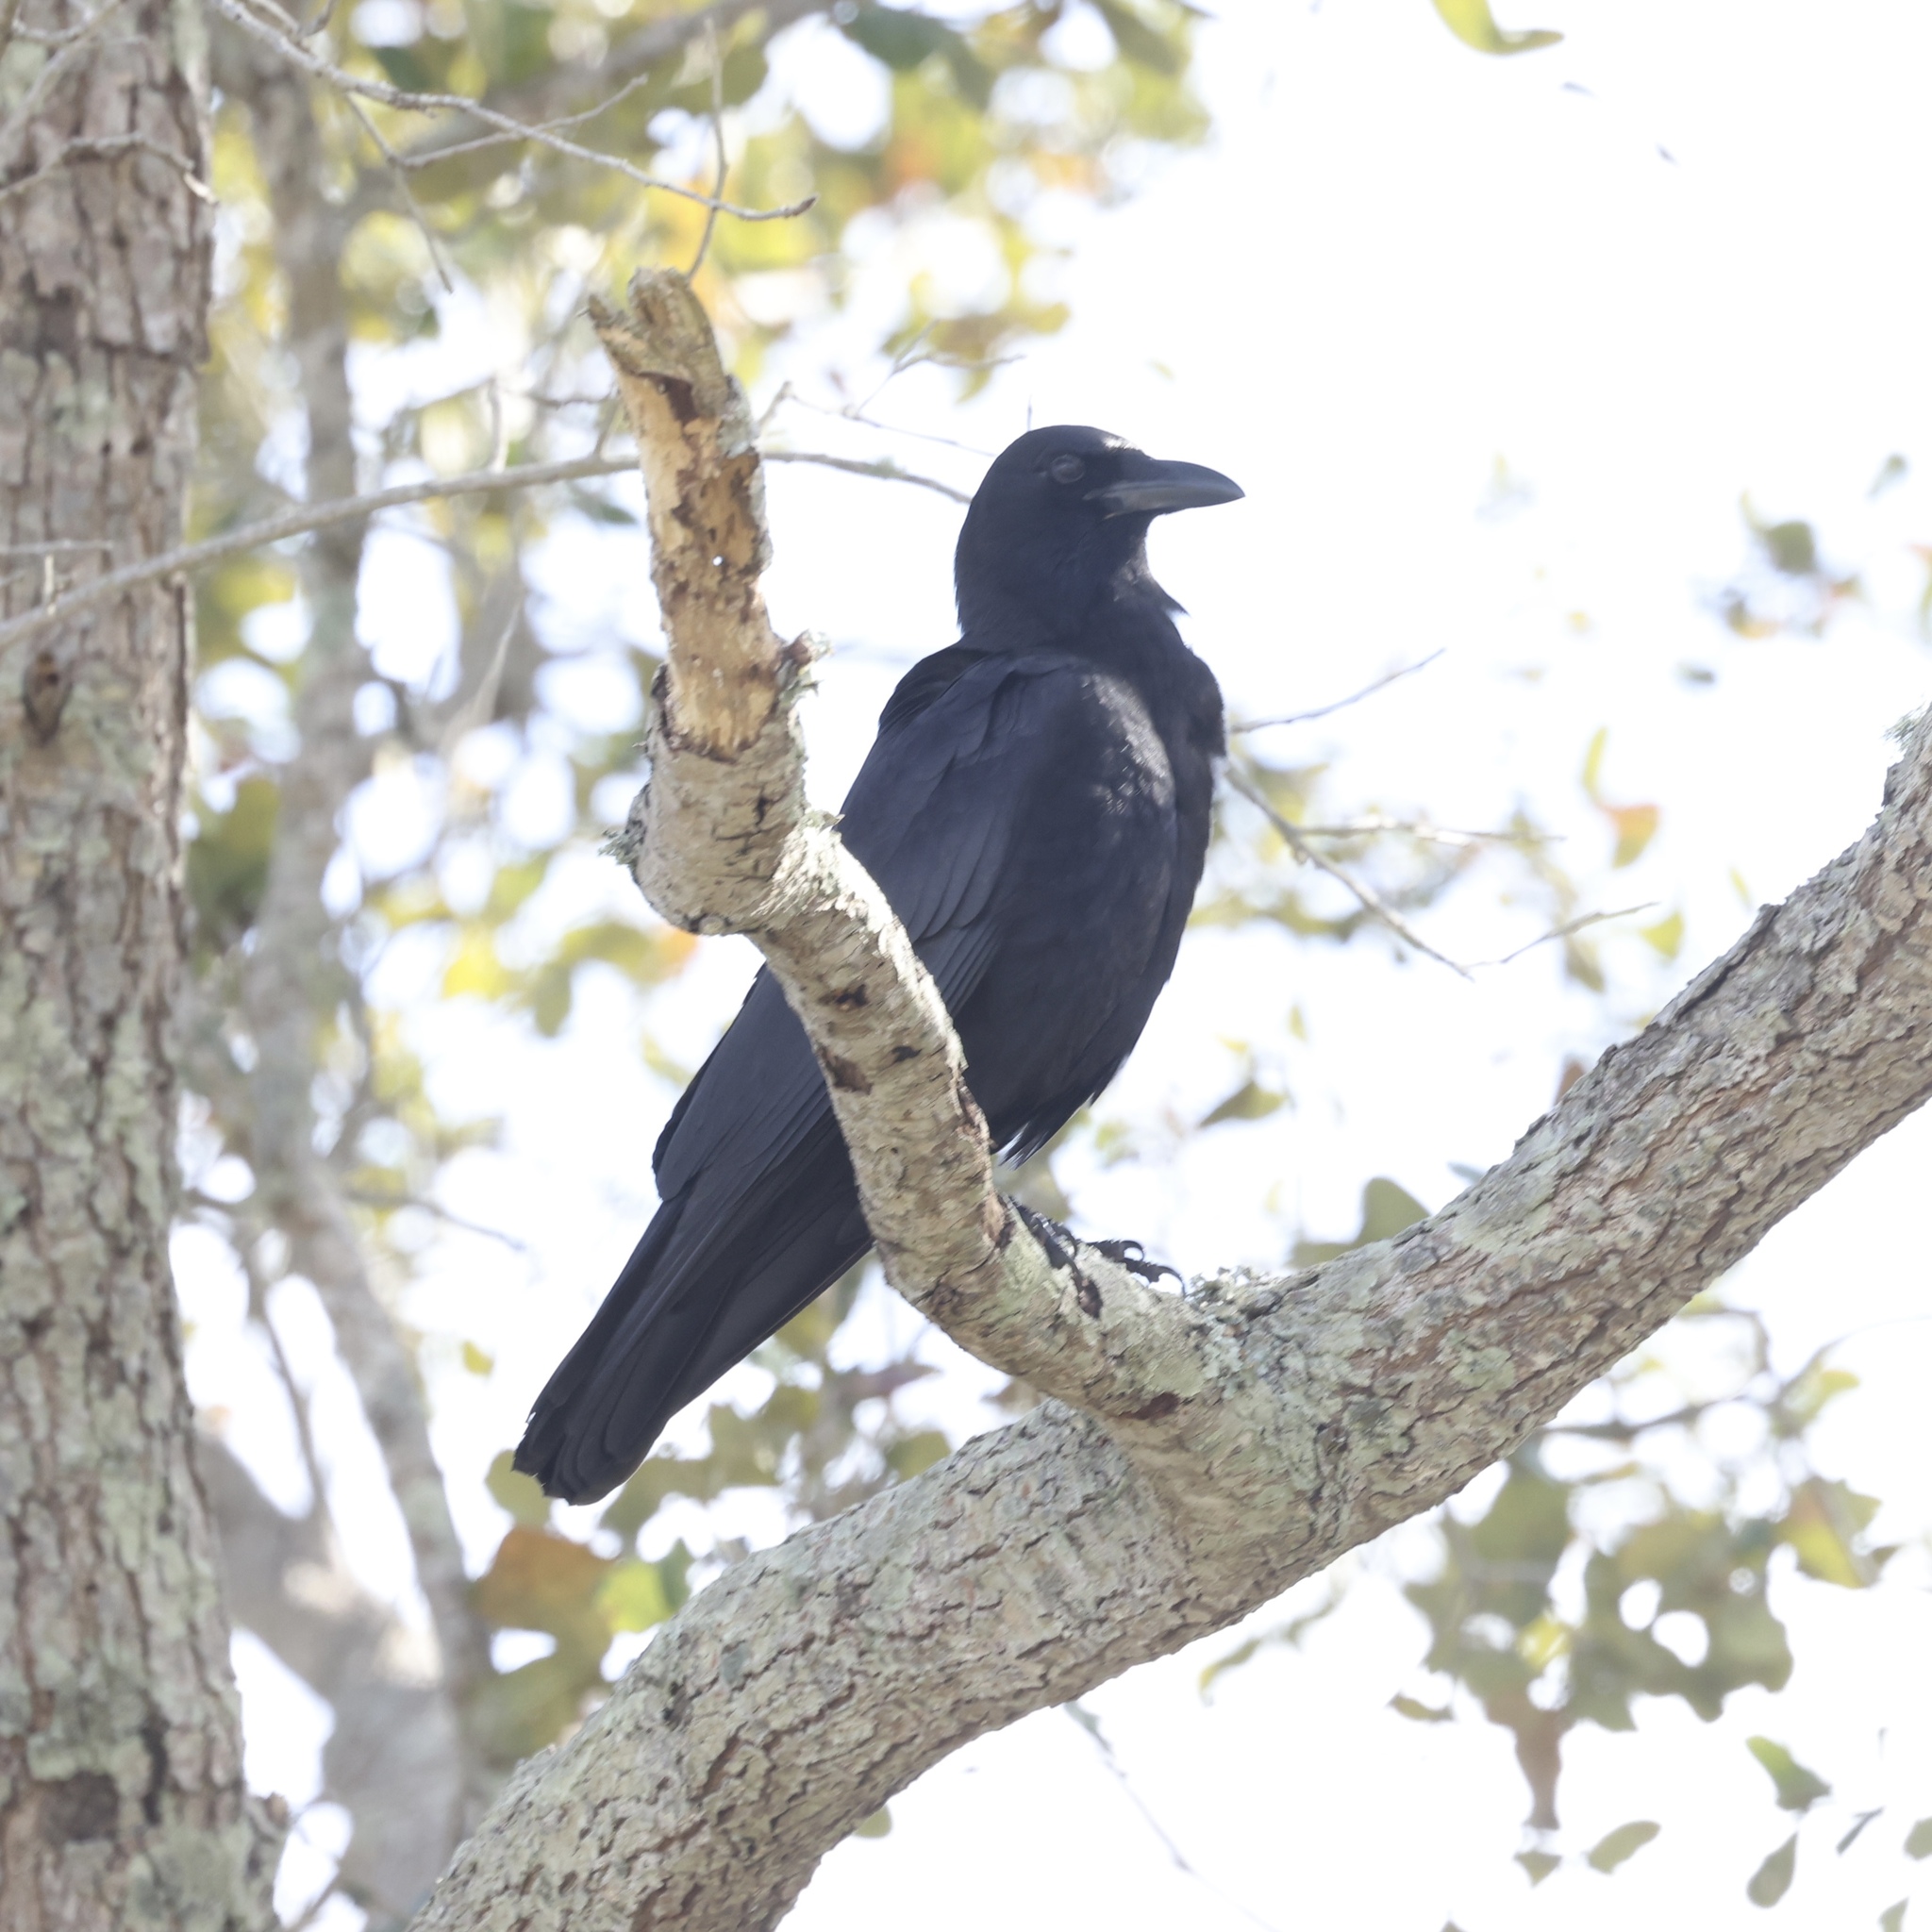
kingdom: Animalia
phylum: Chordata
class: Aves
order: Passeriformes
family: Corvidae
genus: Corvus
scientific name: Corvus brachyrhynchos
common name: American crow
